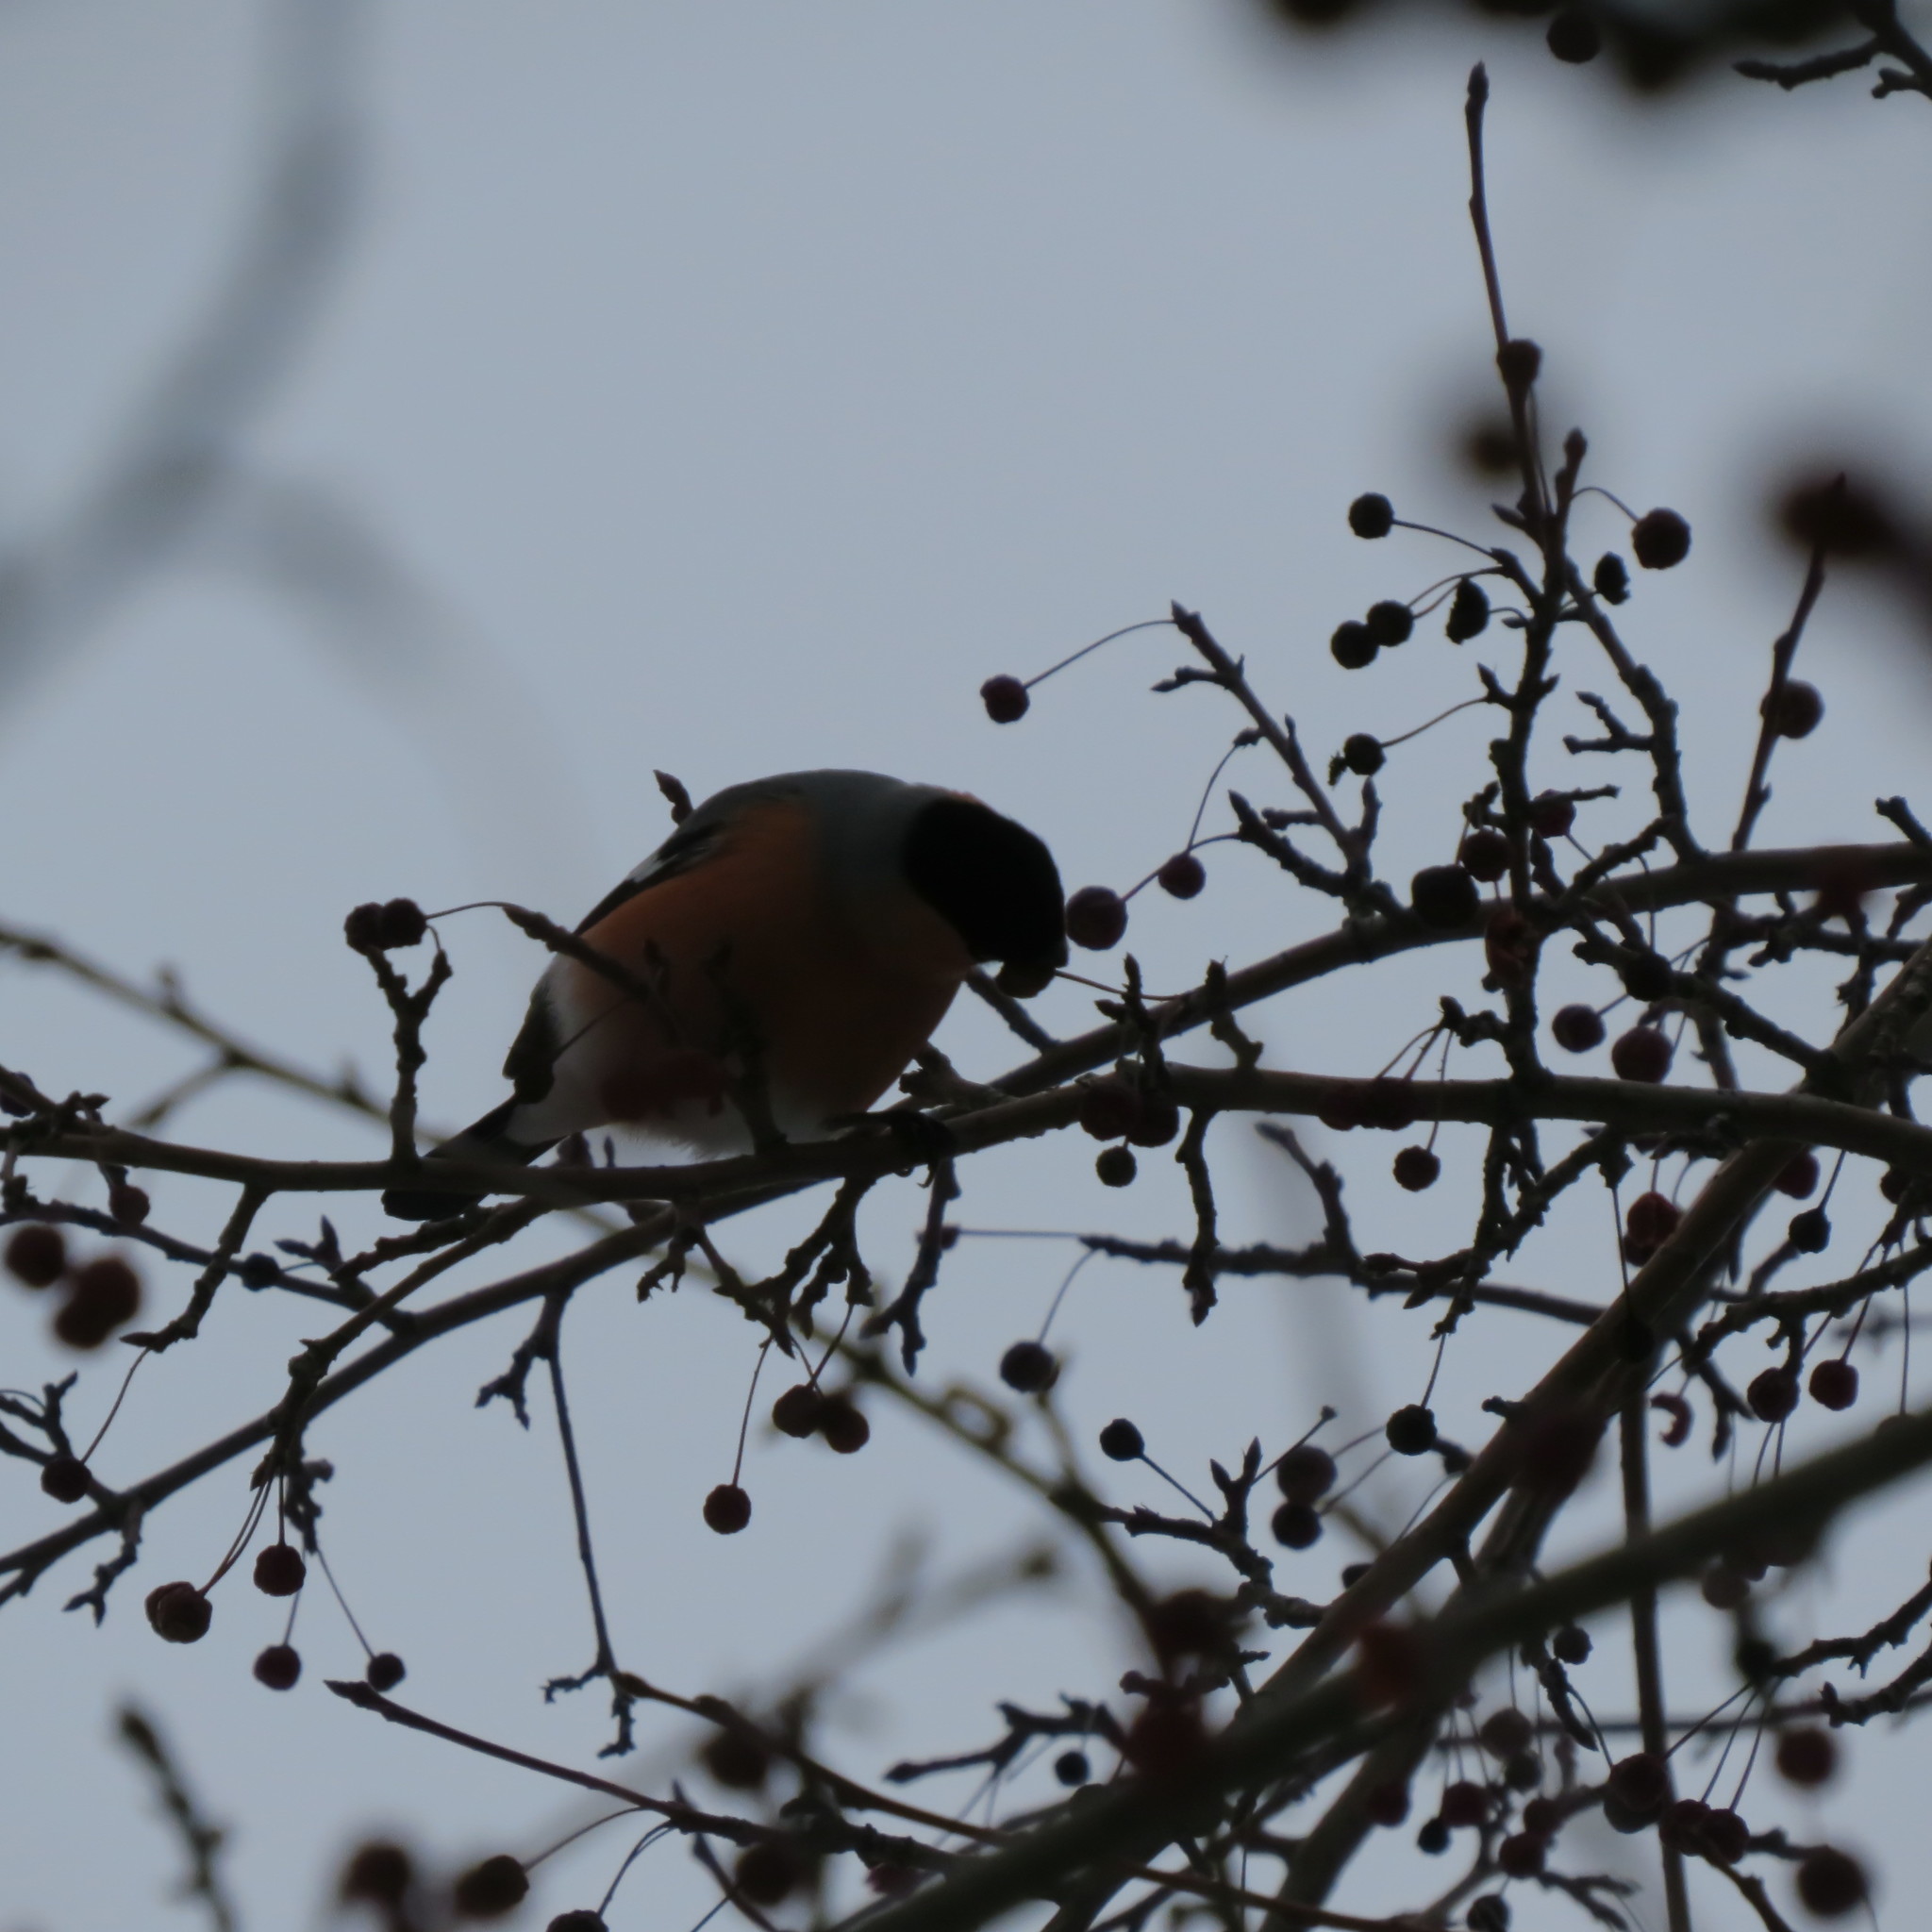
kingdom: Animalia
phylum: Chordata
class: Aves
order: Passeriformes
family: Fringillidae
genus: Pyrrhula
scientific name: Pyrrhula pyrrhula
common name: Eurasian bullfinch
